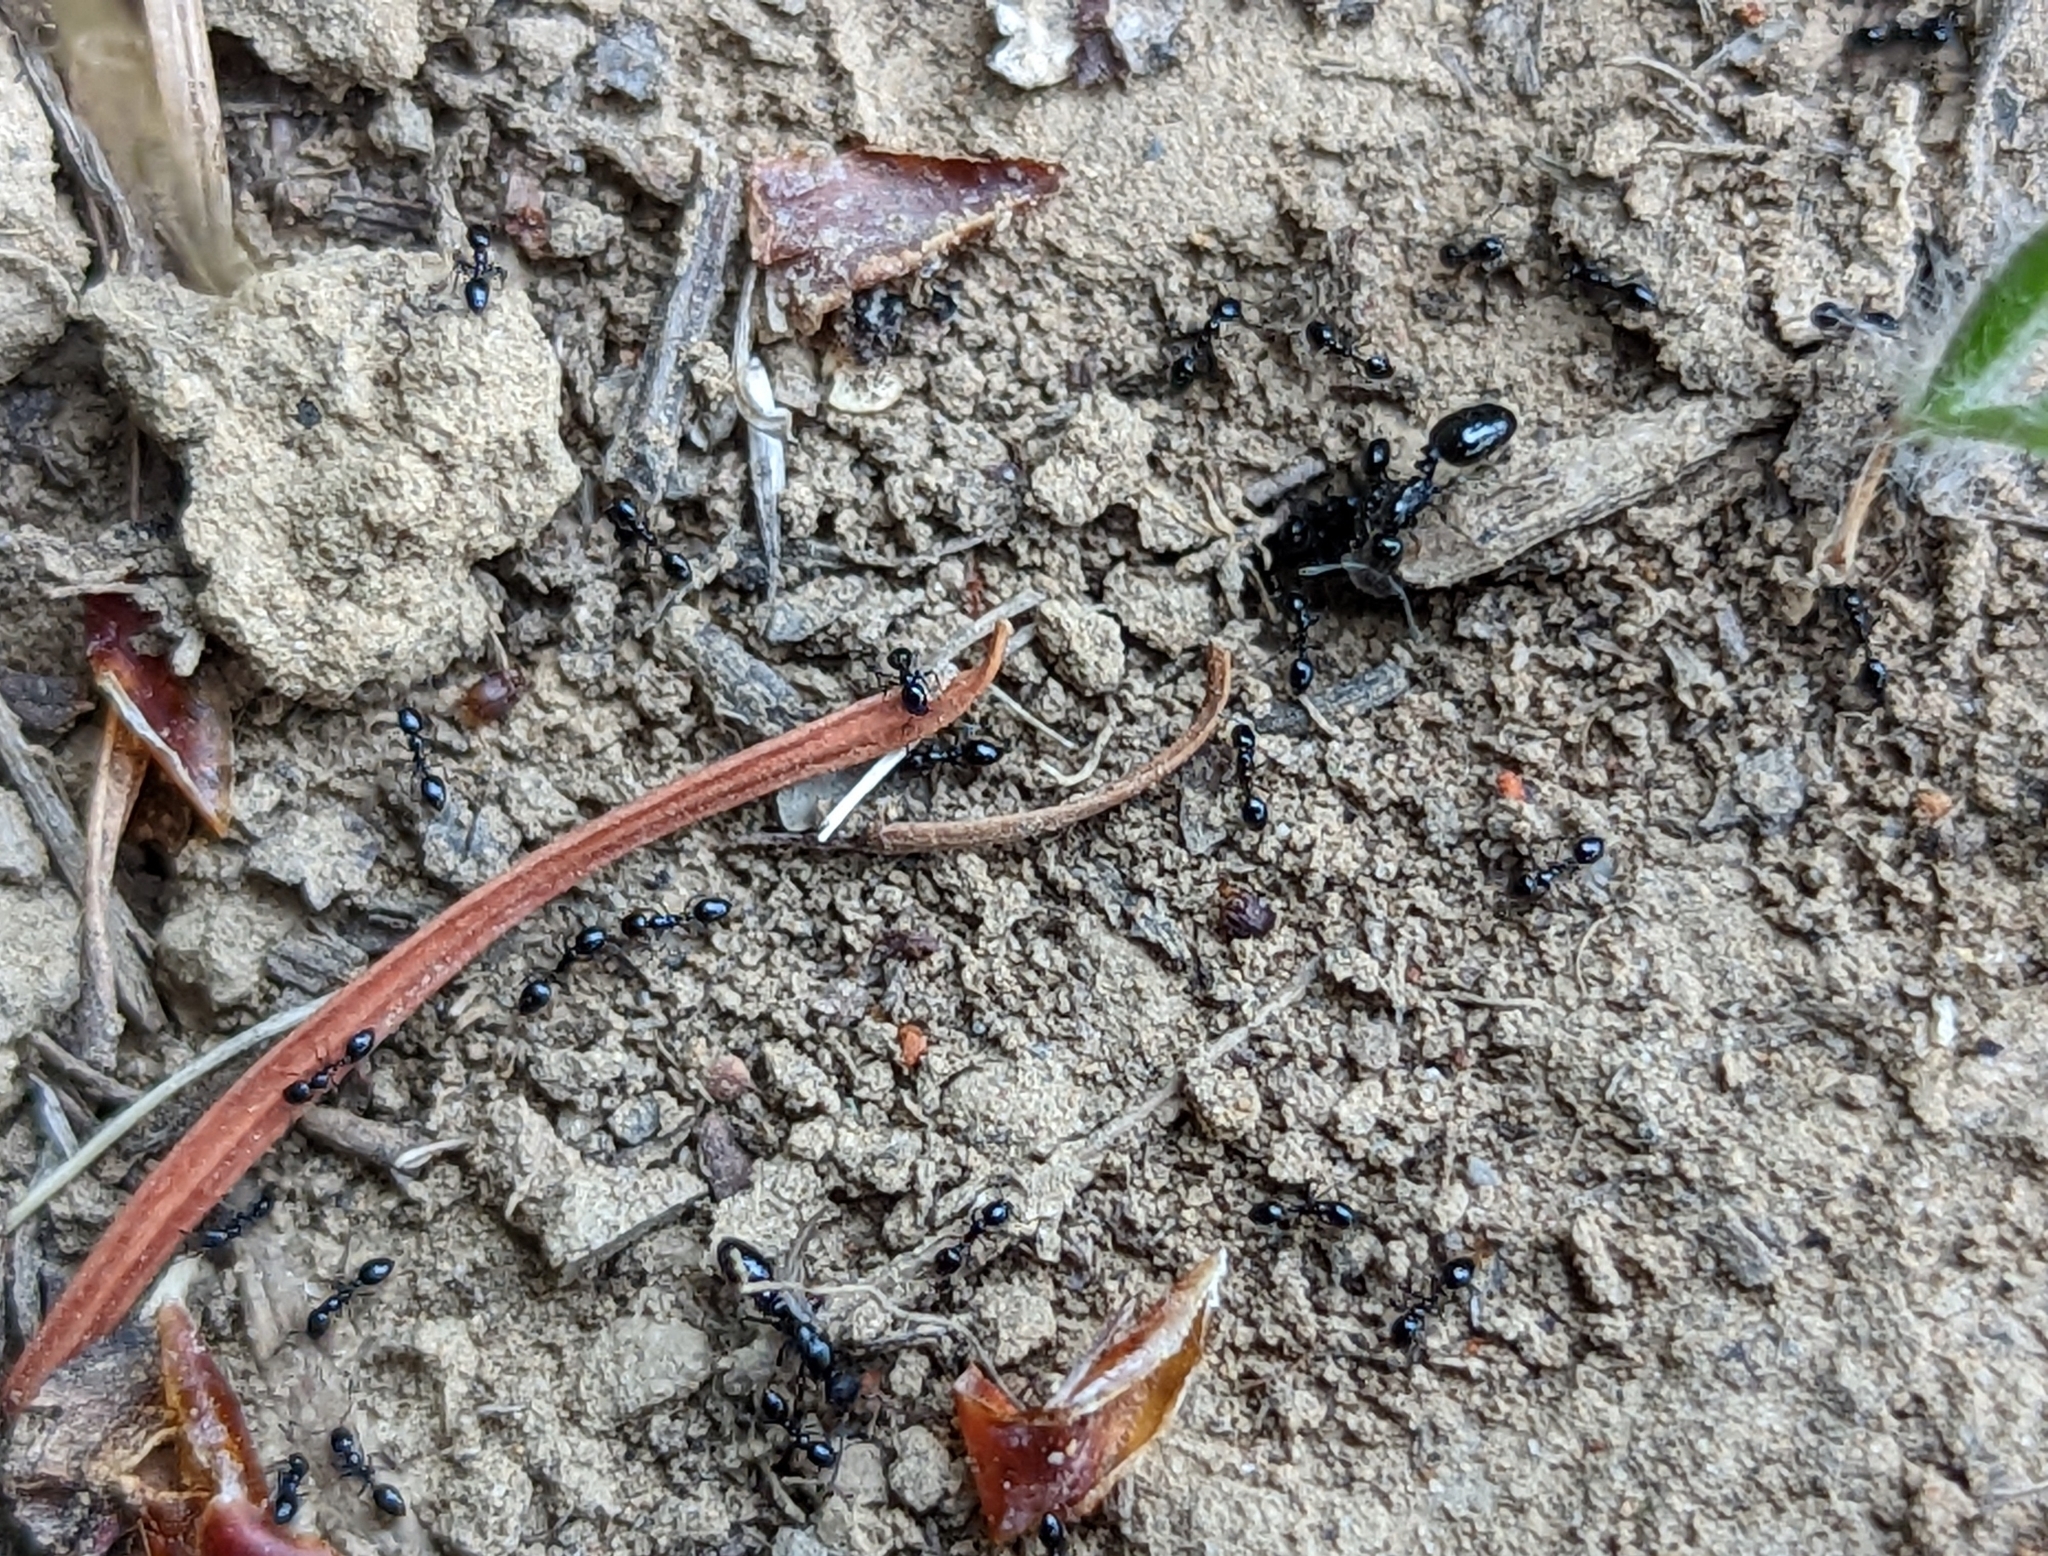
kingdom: Animalia
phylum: Arthropoda
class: Insecta
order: Hymenoptera
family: Formicidae
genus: Monomorium
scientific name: Monomorium ergatogyna
